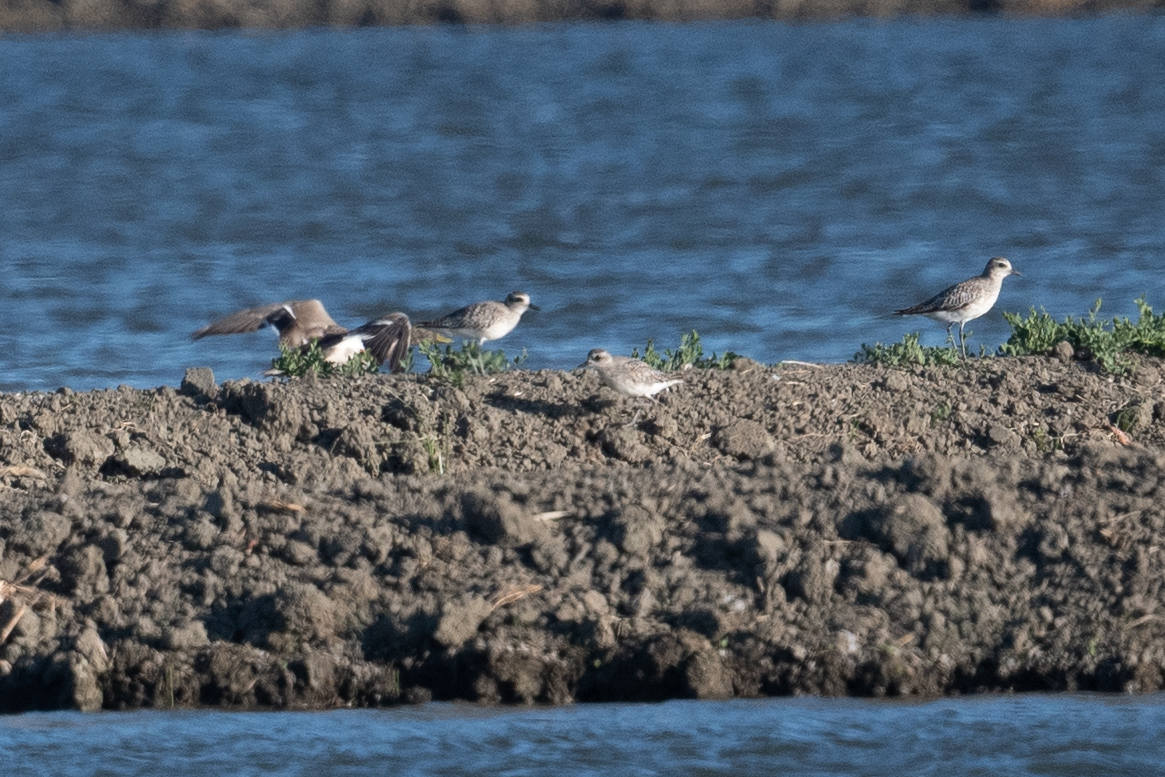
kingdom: Animalia
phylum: Chordata
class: Aves
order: Charadriiformes
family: Charadriidae
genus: Pluvialis
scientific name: Pluvialis squatarola
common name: Grey plover
